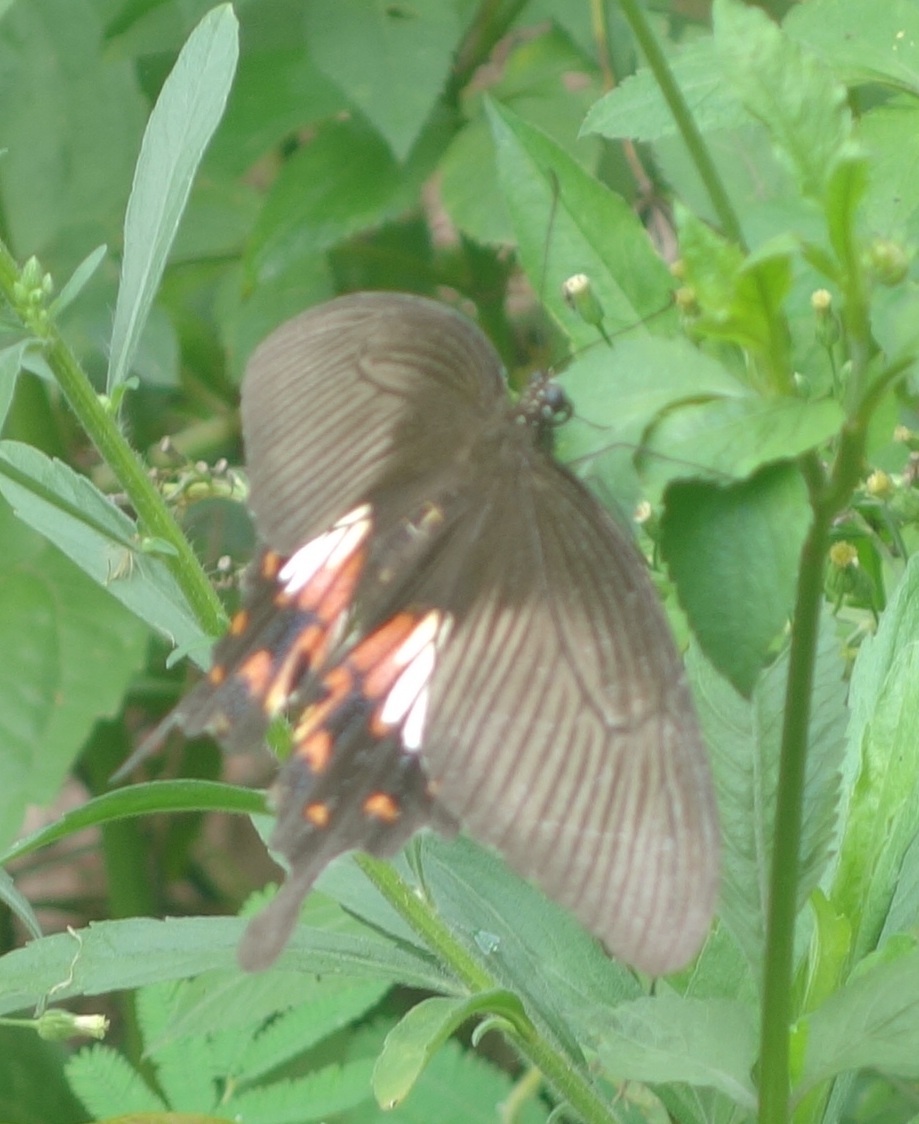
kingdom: Animalia
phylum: Arthropoda
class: Insecta
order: Lepidoptera
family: Papilionidae
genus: Papilio
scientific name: Papilio polytes
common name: Common mormon
